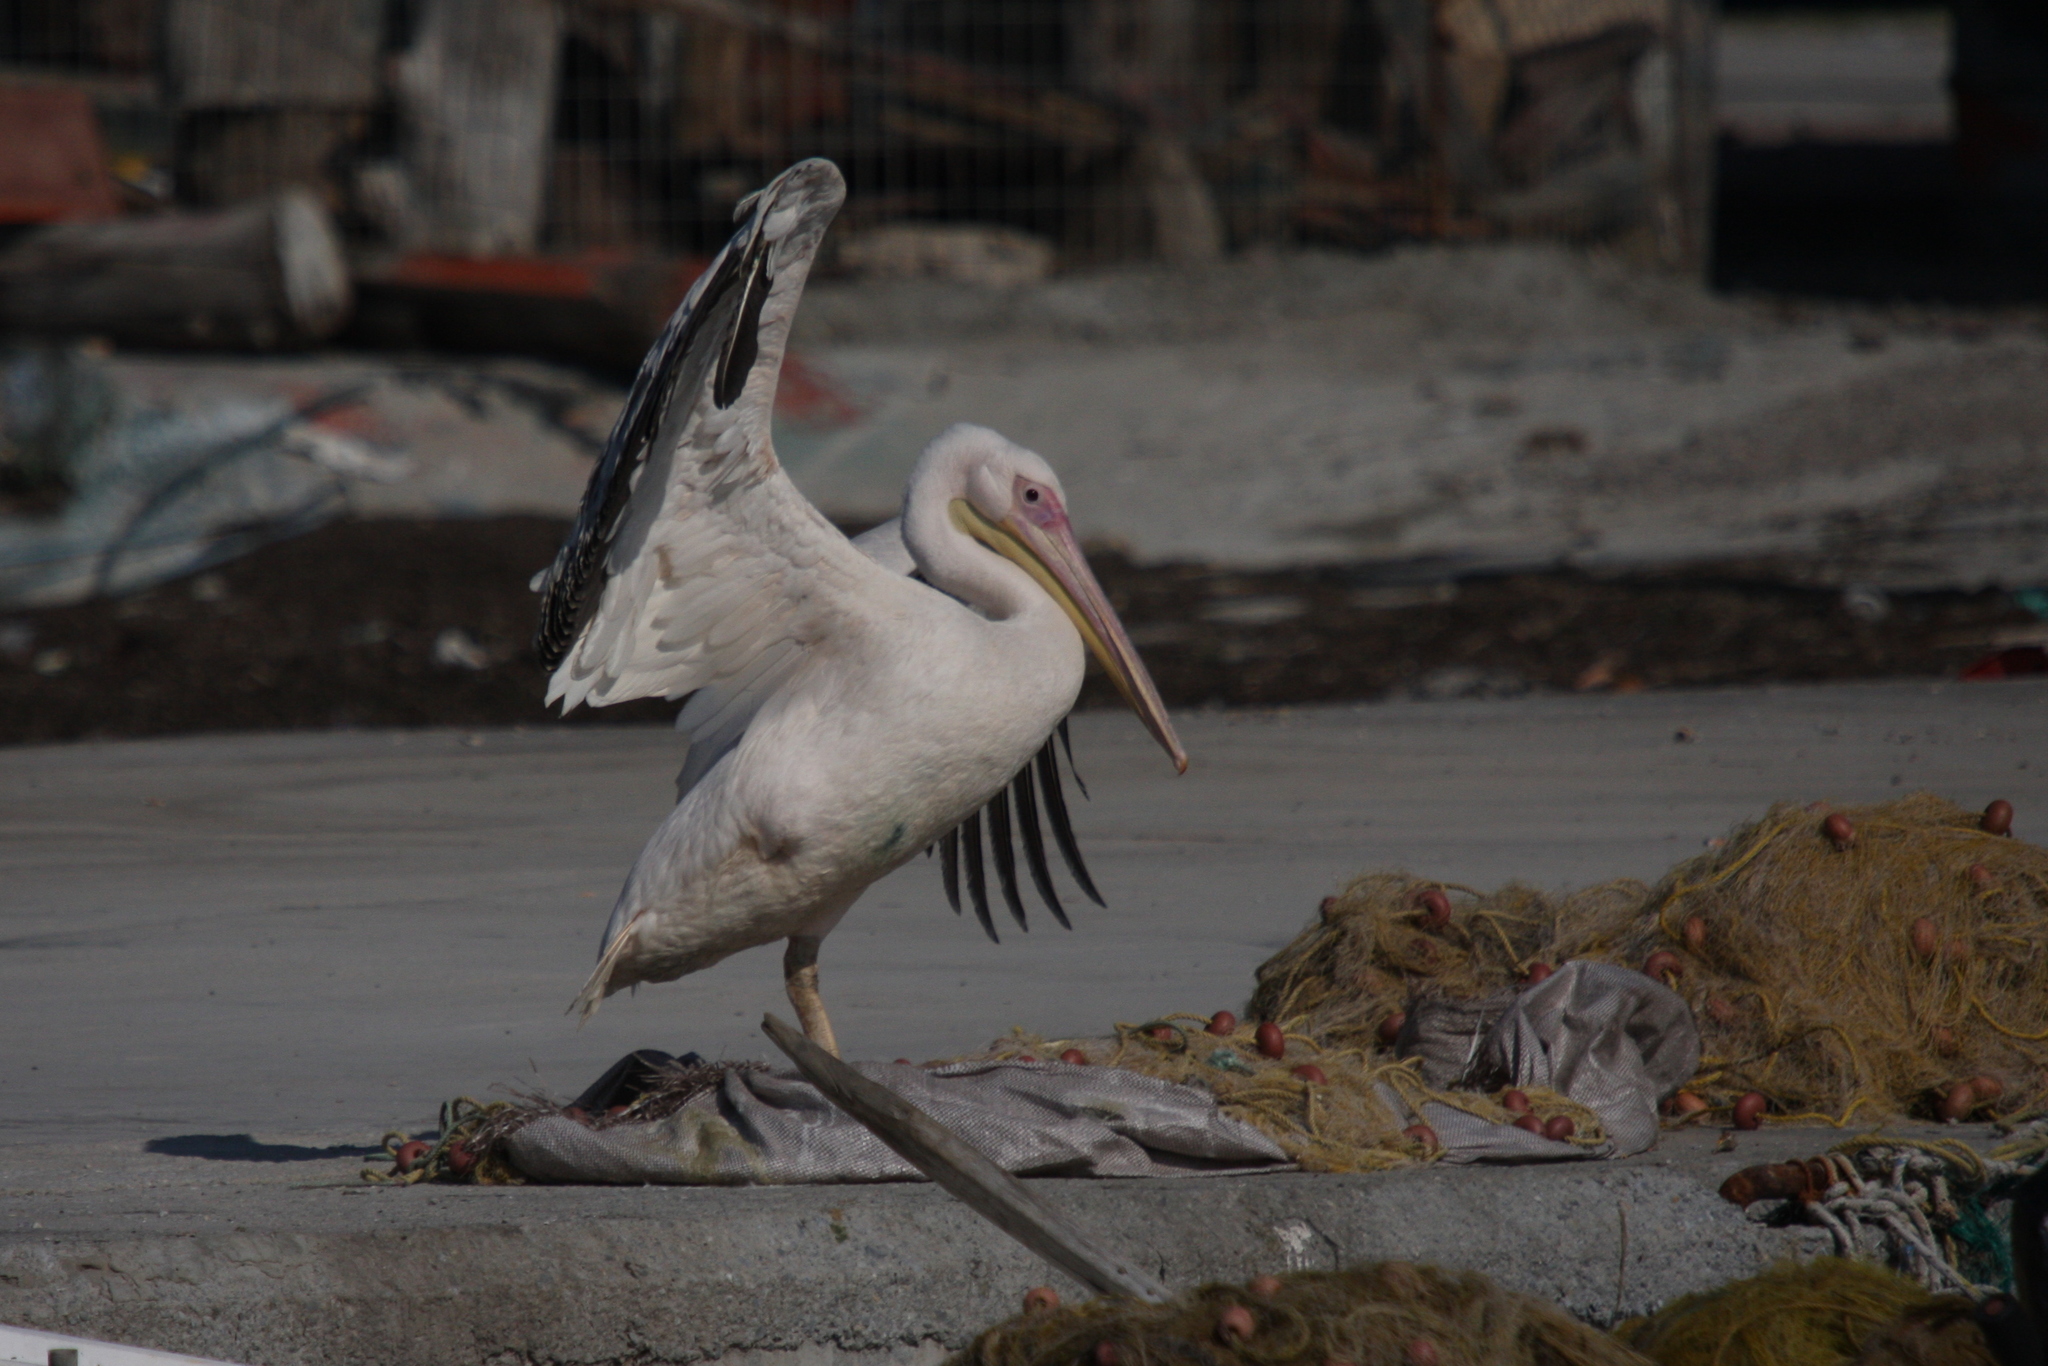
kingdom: Animalia
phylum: Chordata
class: Aves
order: Pelecaniformes
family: Pelecanidae
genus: Pelecanus
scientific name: Pelecanus onocrotalus
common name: Great white pelican
